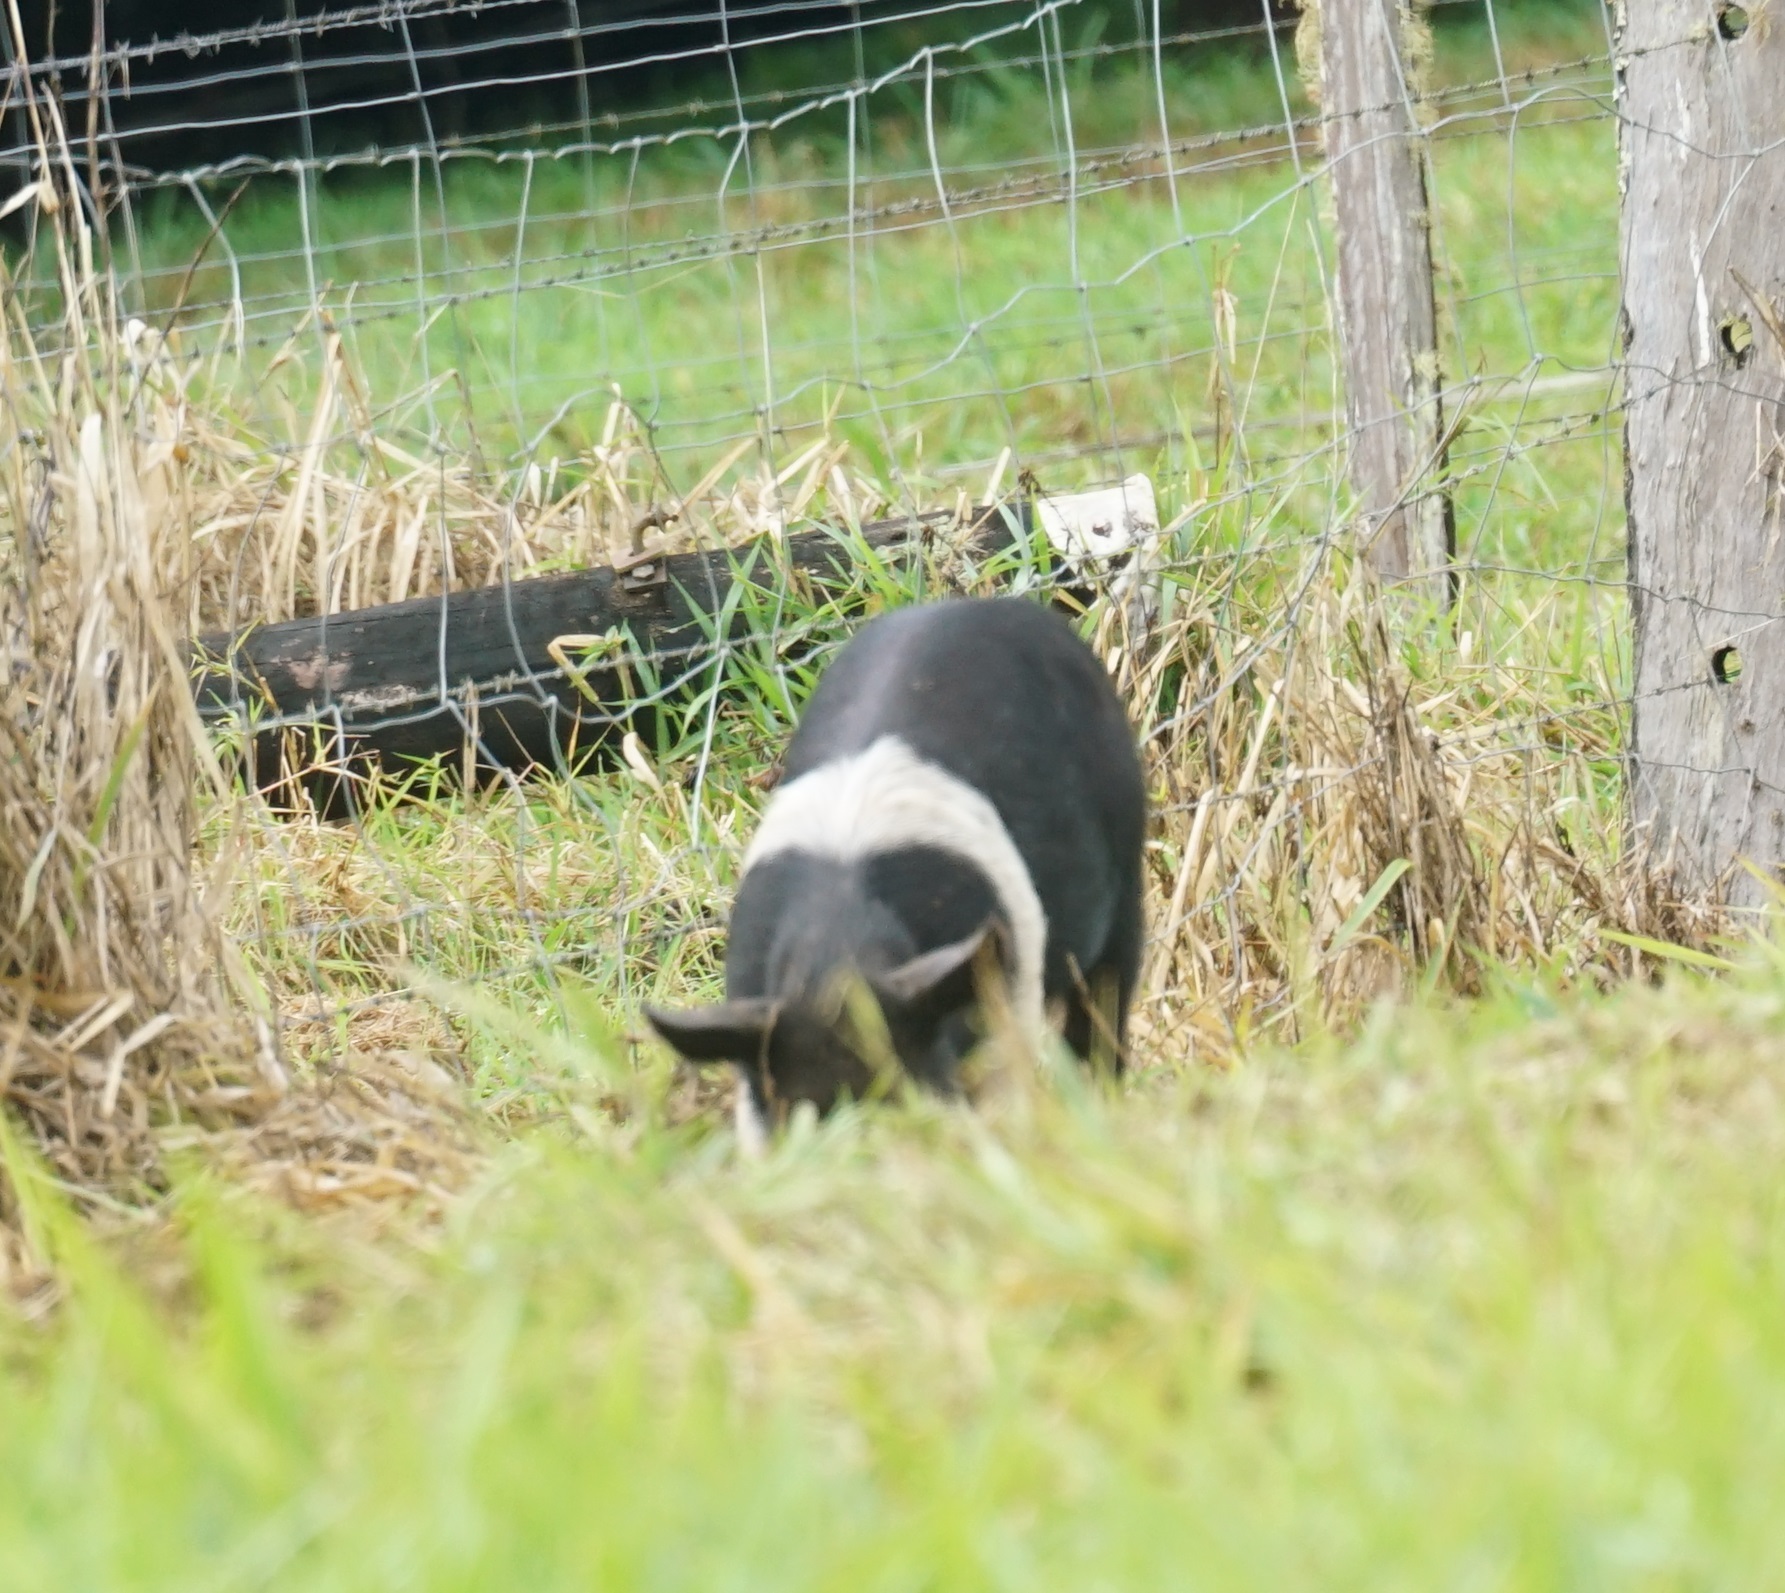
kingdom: Animalia
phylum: Chordata
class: Mammalia
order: Artiodactyla
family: Suidae
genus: Sus
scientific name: Sus scrofa
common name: Wild boar
